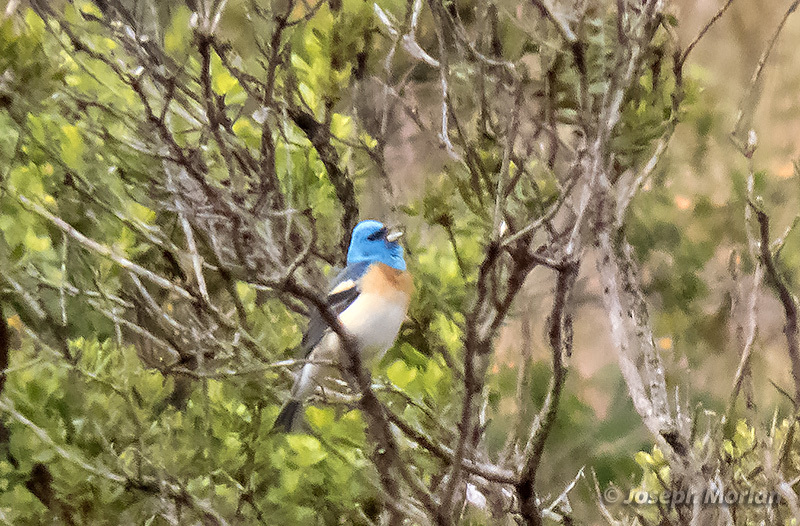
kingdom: Animalia
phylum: Chordata
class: Aves
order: Passeriformes
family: Cardinalidae
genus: Passerina
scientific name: Passerina amoena
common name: Lazuli bunting
